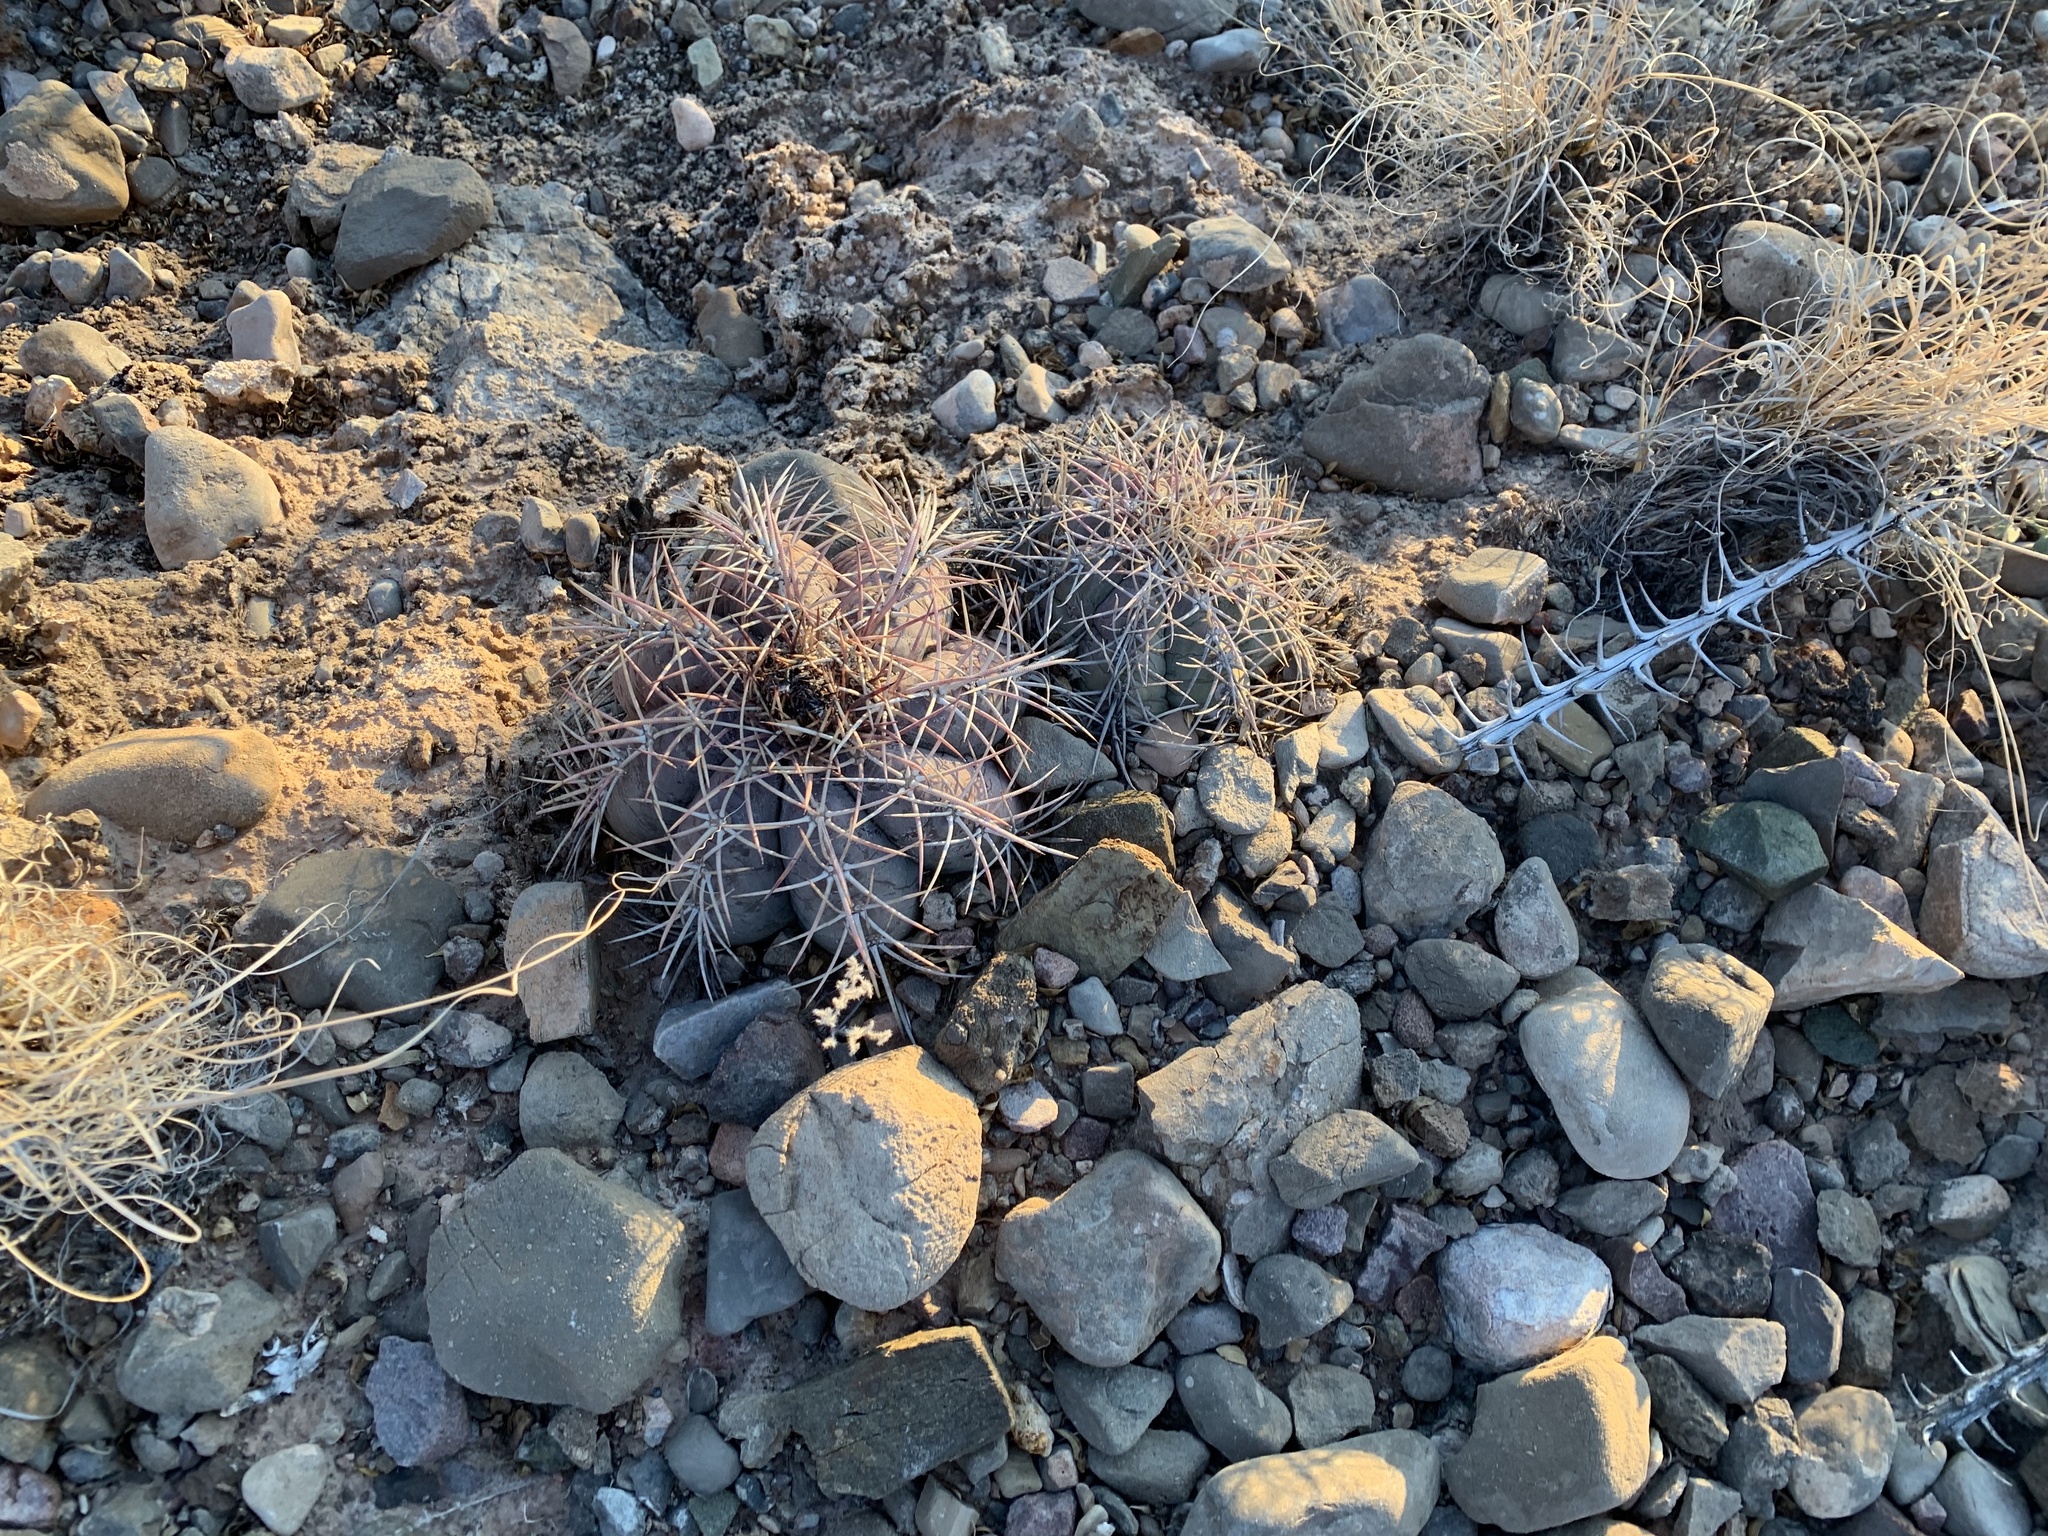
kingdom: Plantae
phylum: Tracheophyta
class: Magnoliopsida
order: Caryophyllales
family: Cactaceae
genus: Echinocactus
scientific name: Echinocactus horizonthalonius
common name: Devilshead
